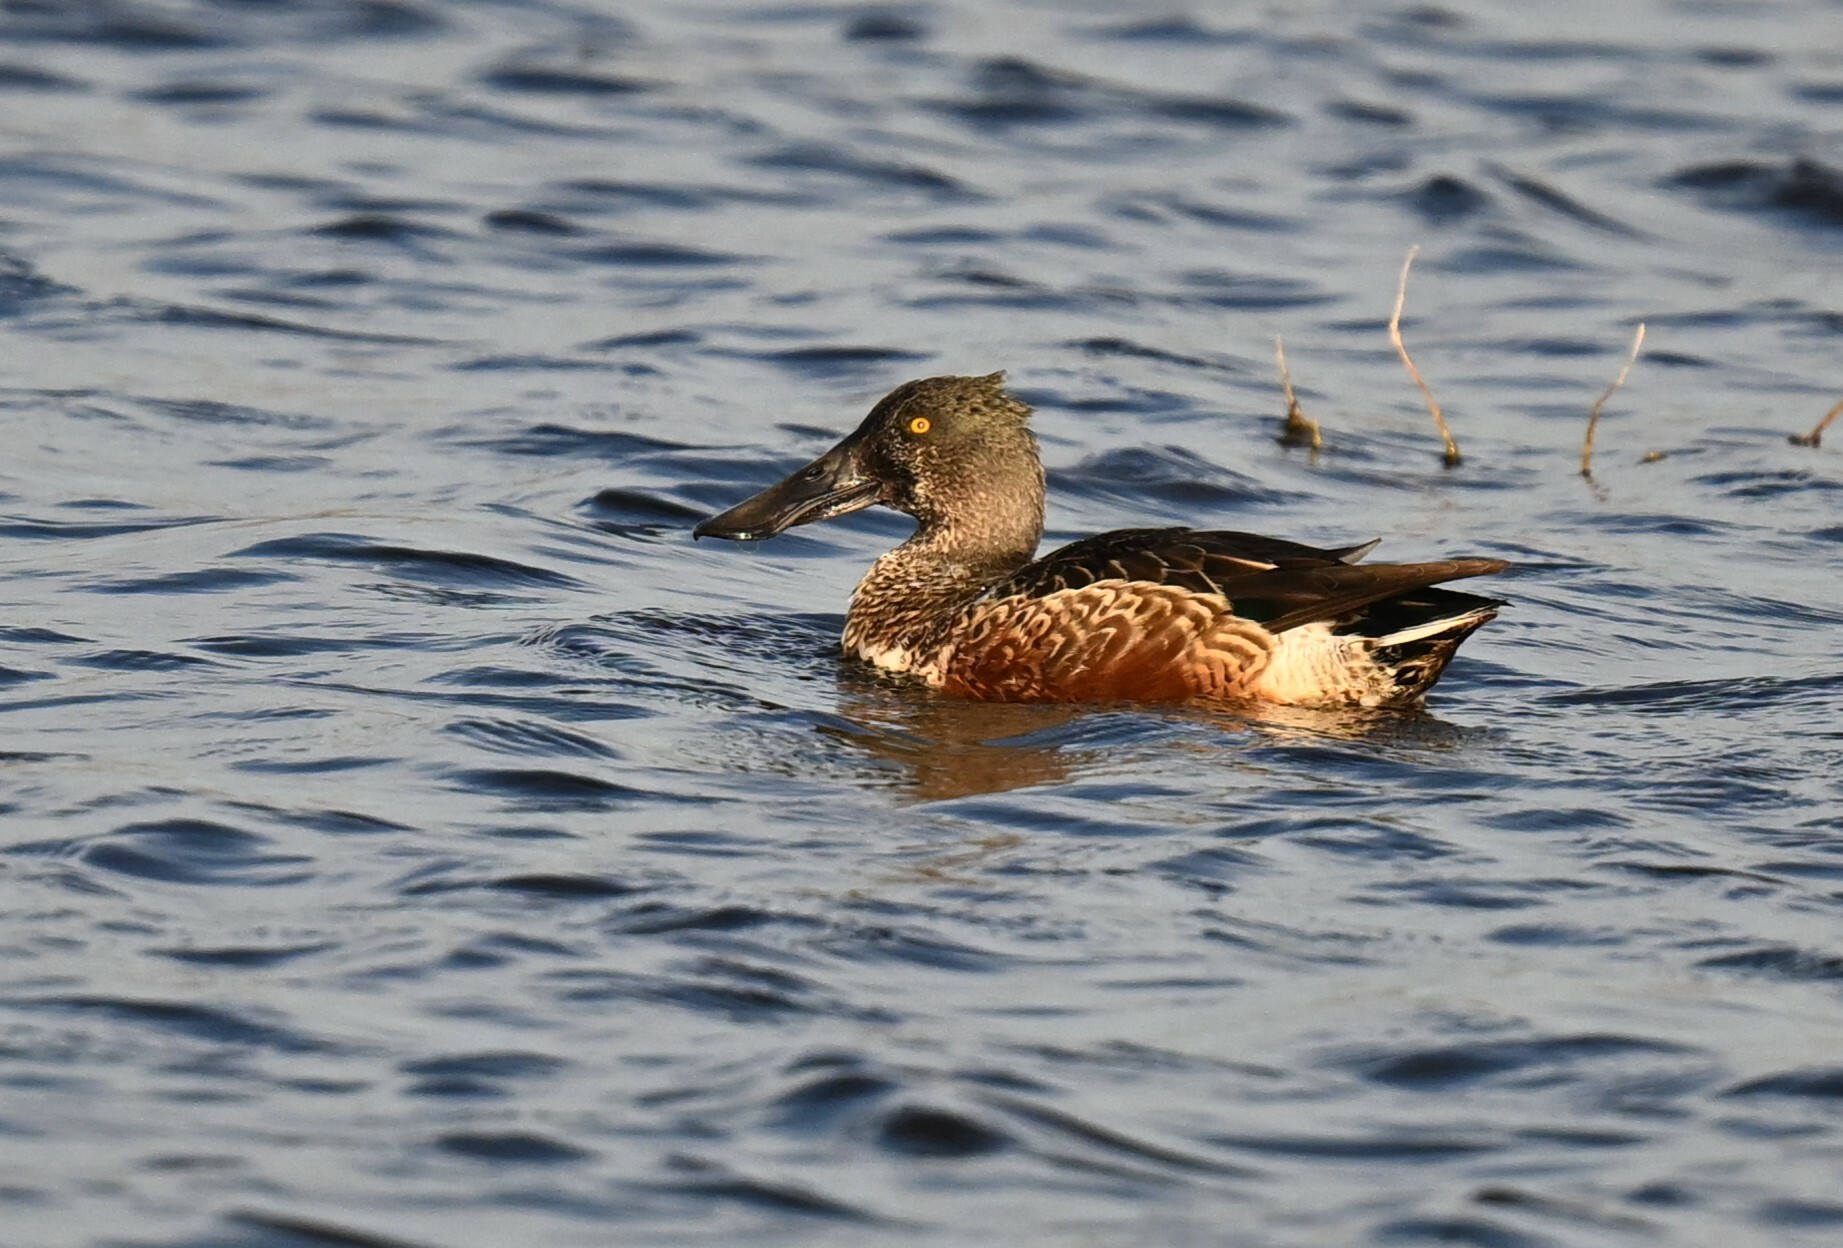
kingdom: Animalia
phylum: Chordata
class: Aves
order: Anseriformes
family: Anatidae
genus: Spatula
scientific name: Spatula clypeata
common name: Northern shoveler
